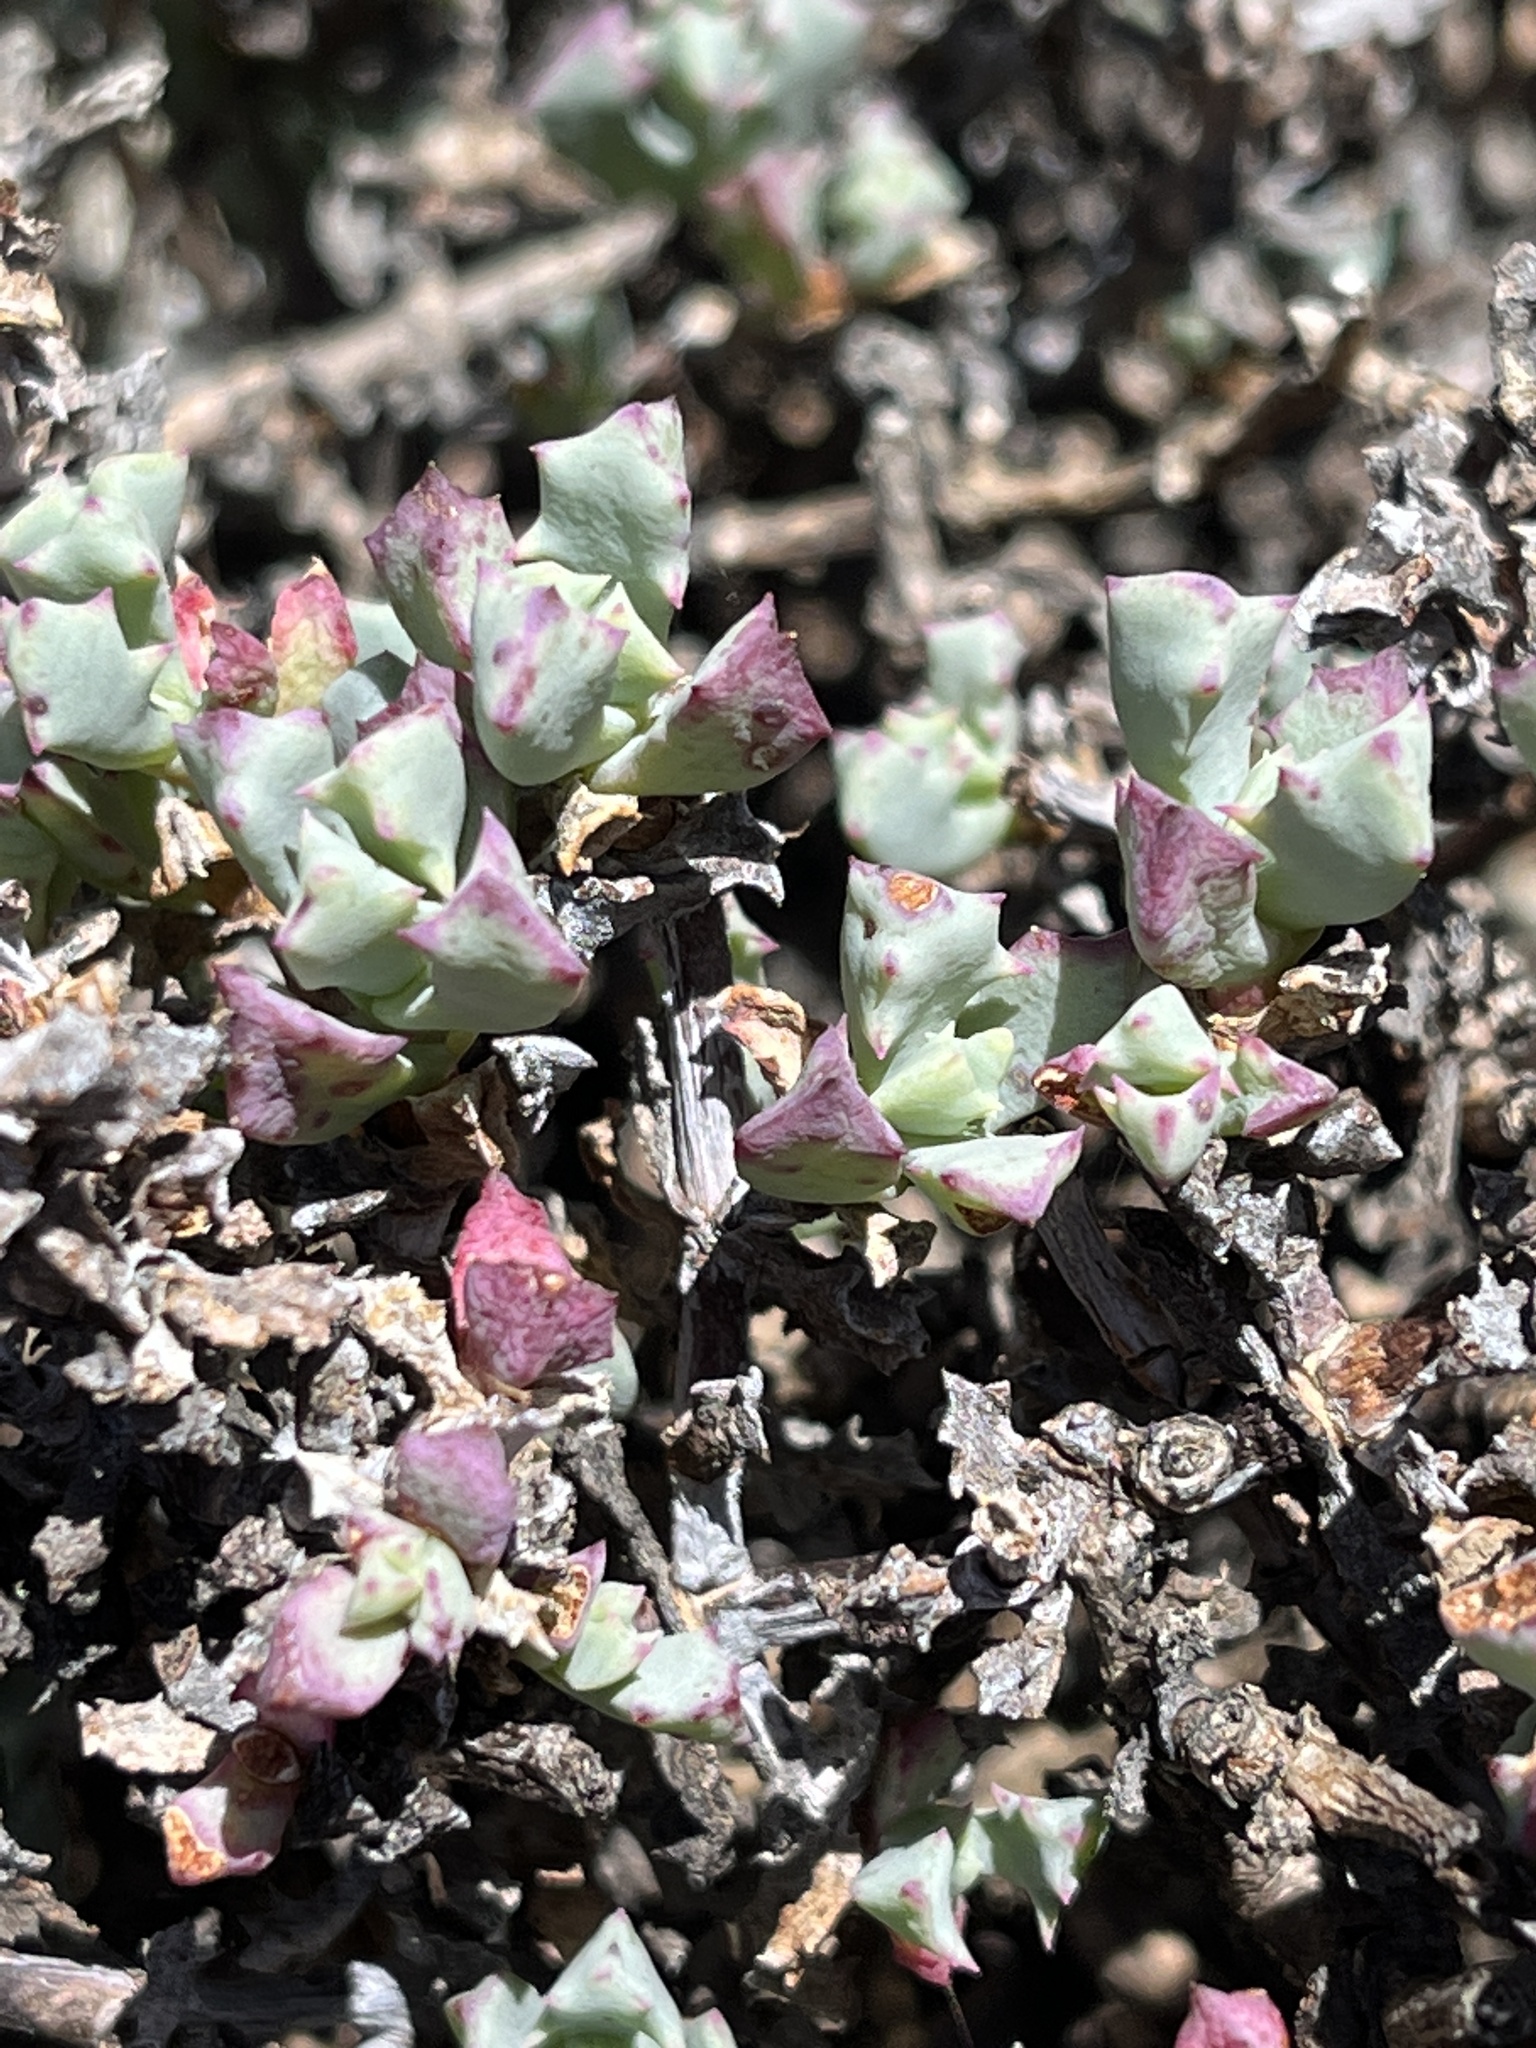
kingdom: Plantae
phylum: Tracheophyta
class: Magnoliopsida
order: Caryophyllales
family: Aizoaceae
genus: Oscularia
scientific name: Oscularia deltoides
